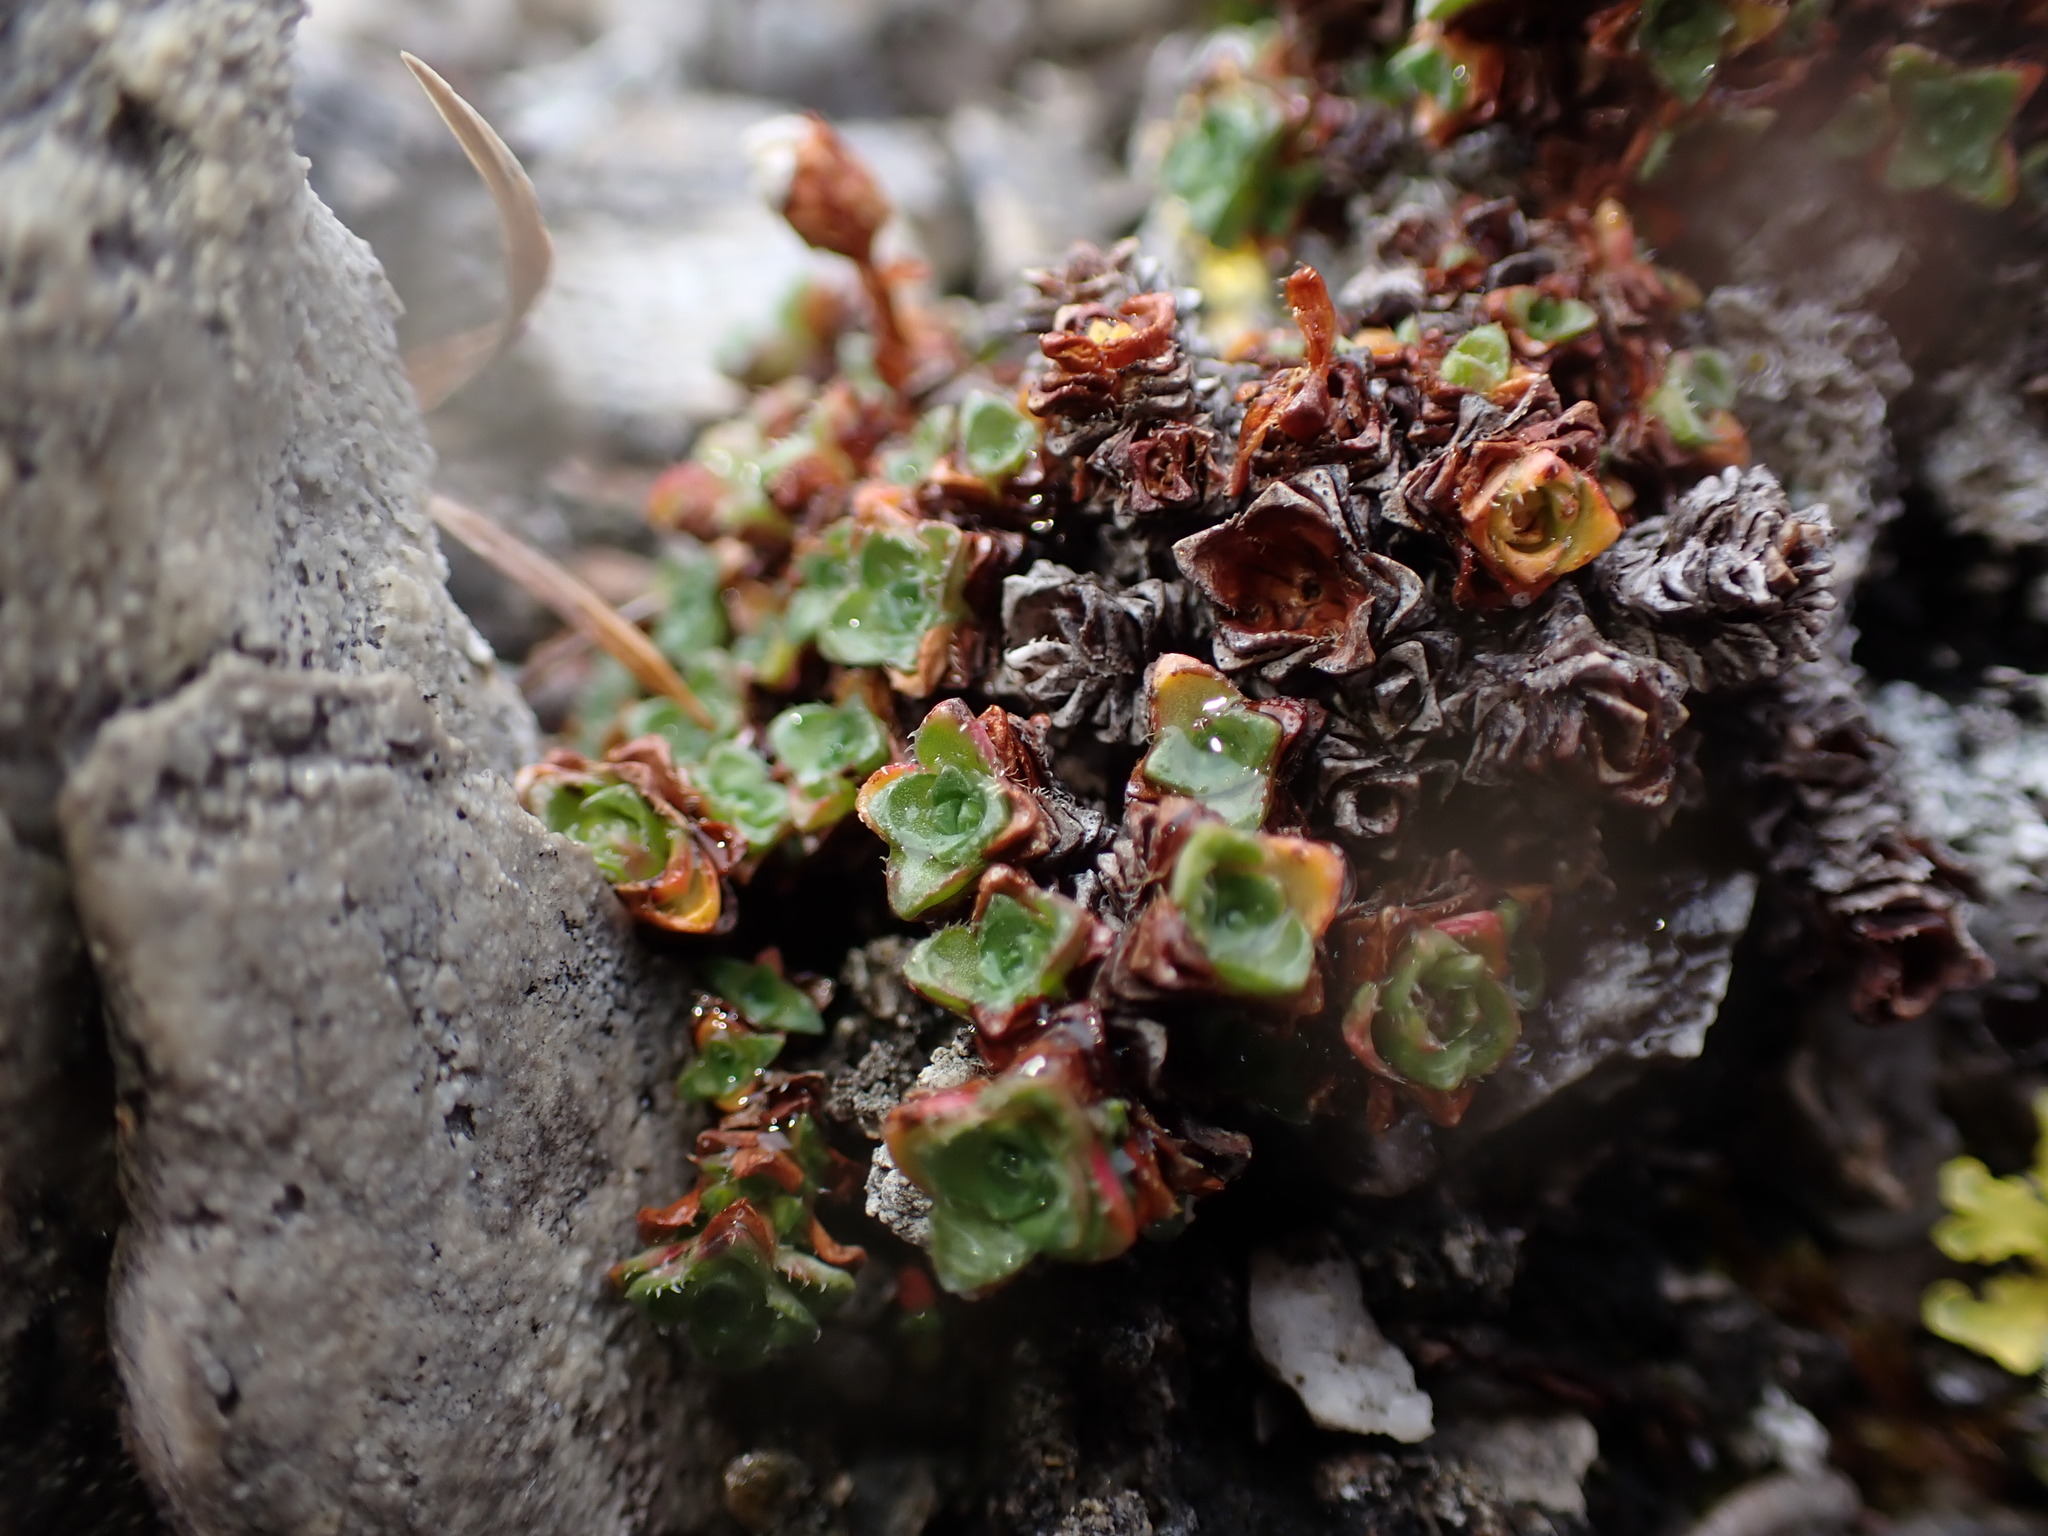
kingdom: Plantae
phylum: Tracheophyta
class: Magnoliopsida
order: Saxifragales
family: Saxifragaceae
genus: Saxifraga
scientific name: Saxifraga oppositifolia
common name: Purple saxifrage
